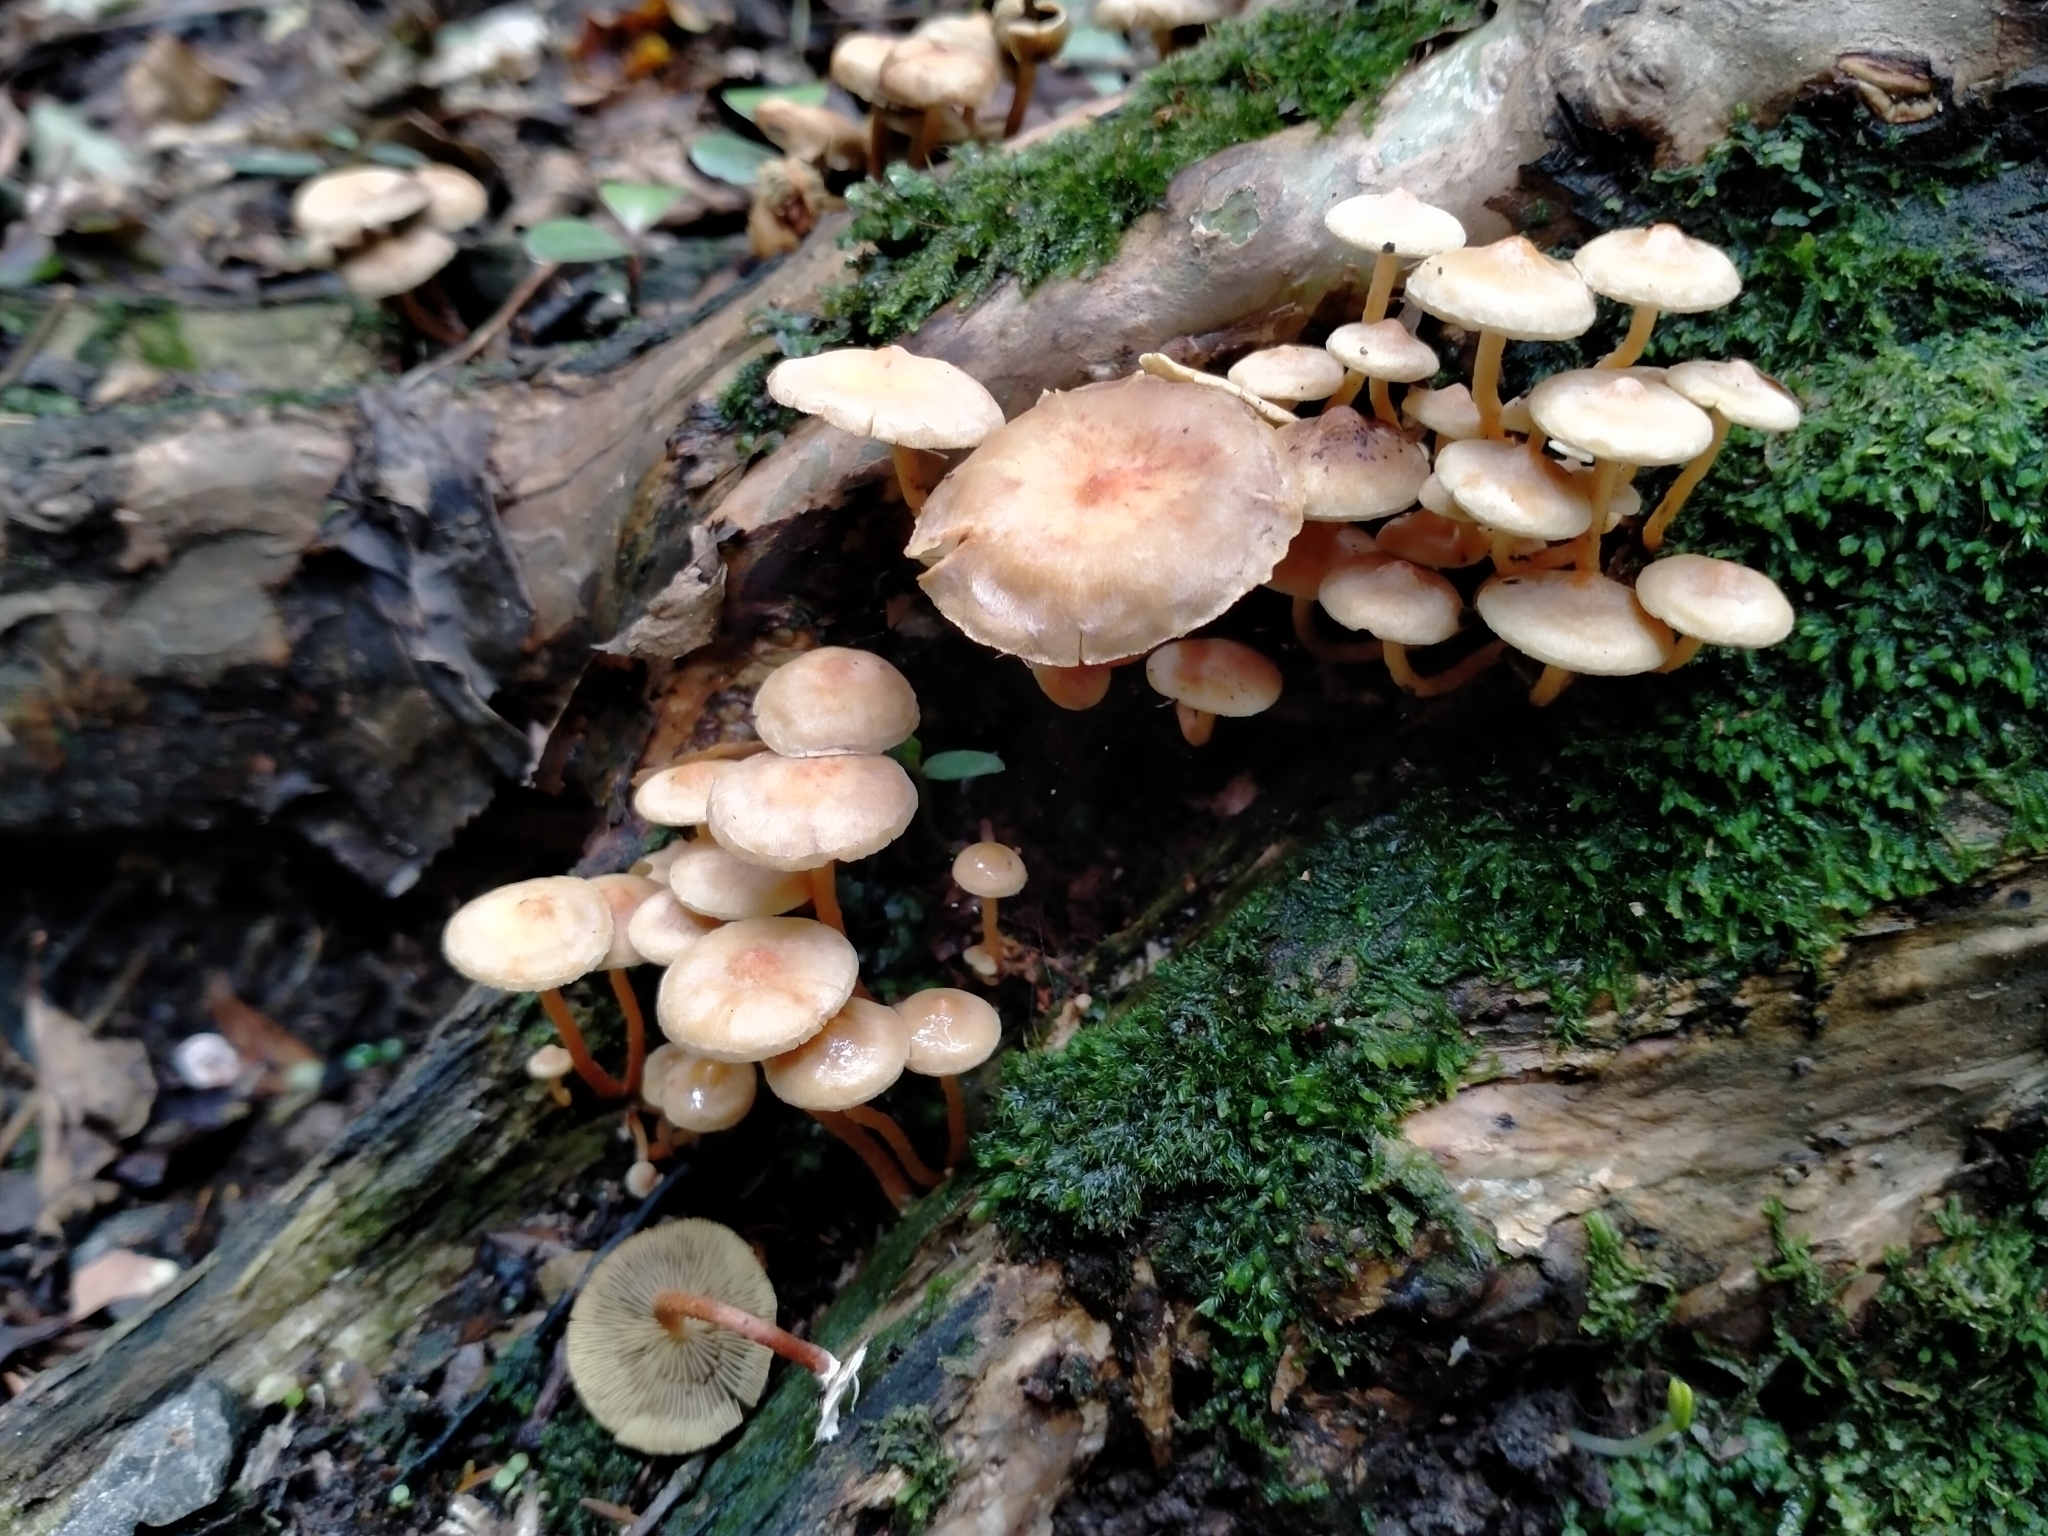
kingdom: Fungi
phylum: Basidiomycota
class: Agaricomycetes
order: Agaricales
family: Strophariaceae
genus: Hypholoma
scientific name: Hypholoma acutum
